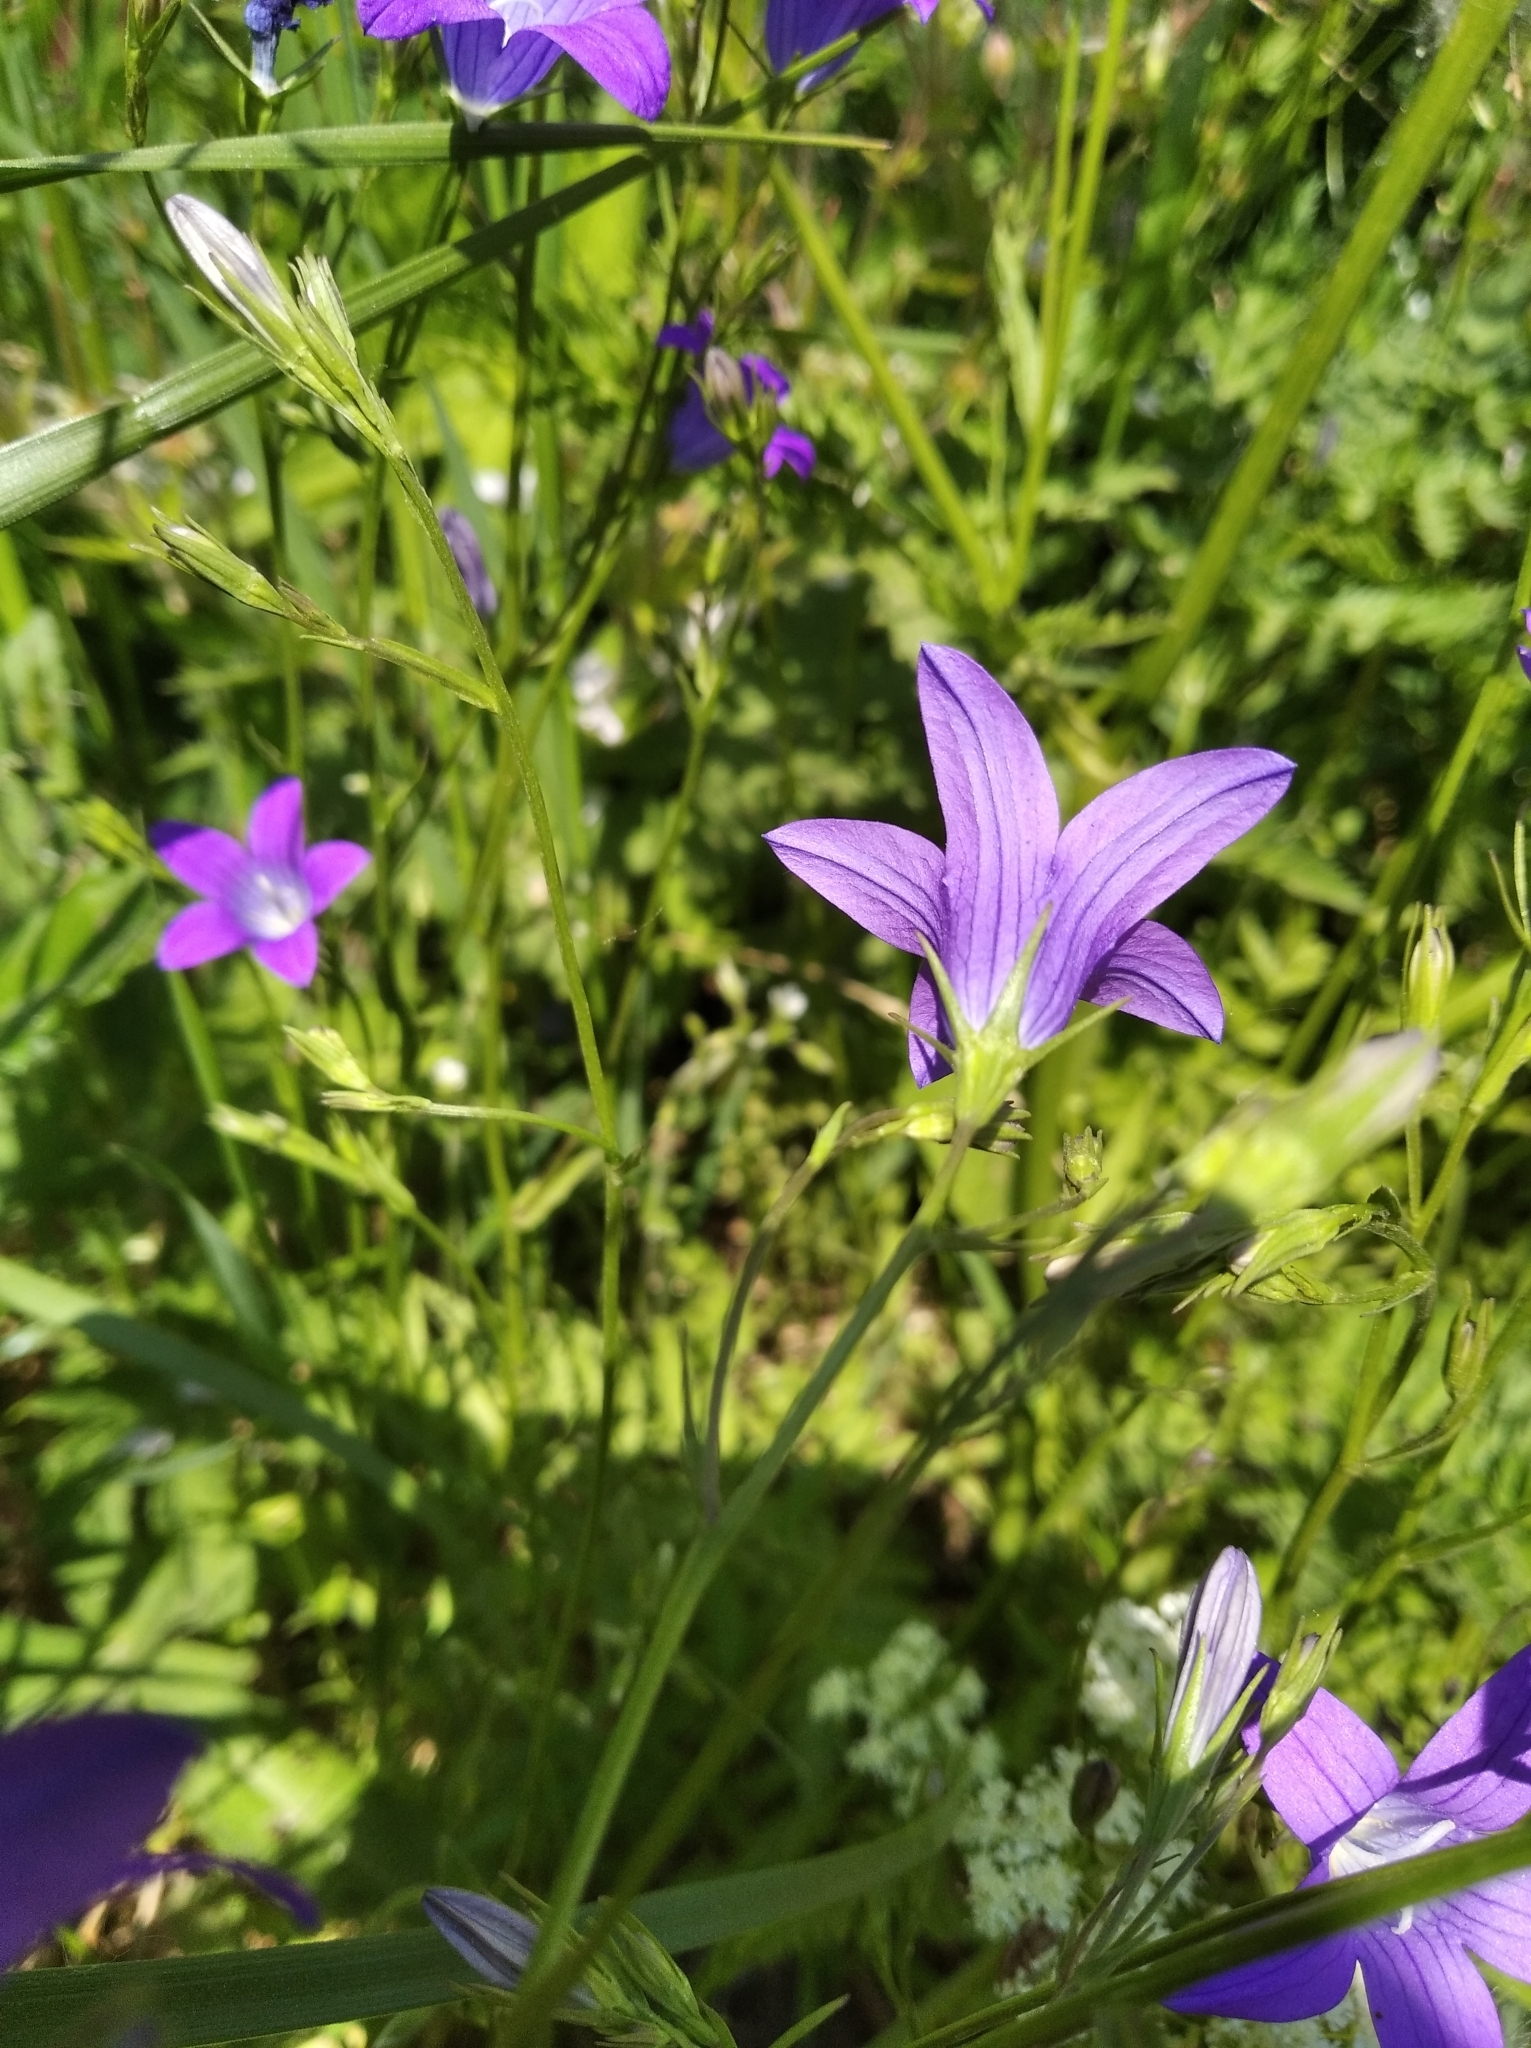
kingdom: Plantae
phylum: Tracheophyta
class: Magnoliopsida
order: Asterales
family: Campanulaceae
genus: Campanula
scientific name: Campanula patula
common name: Spreading bellflower
